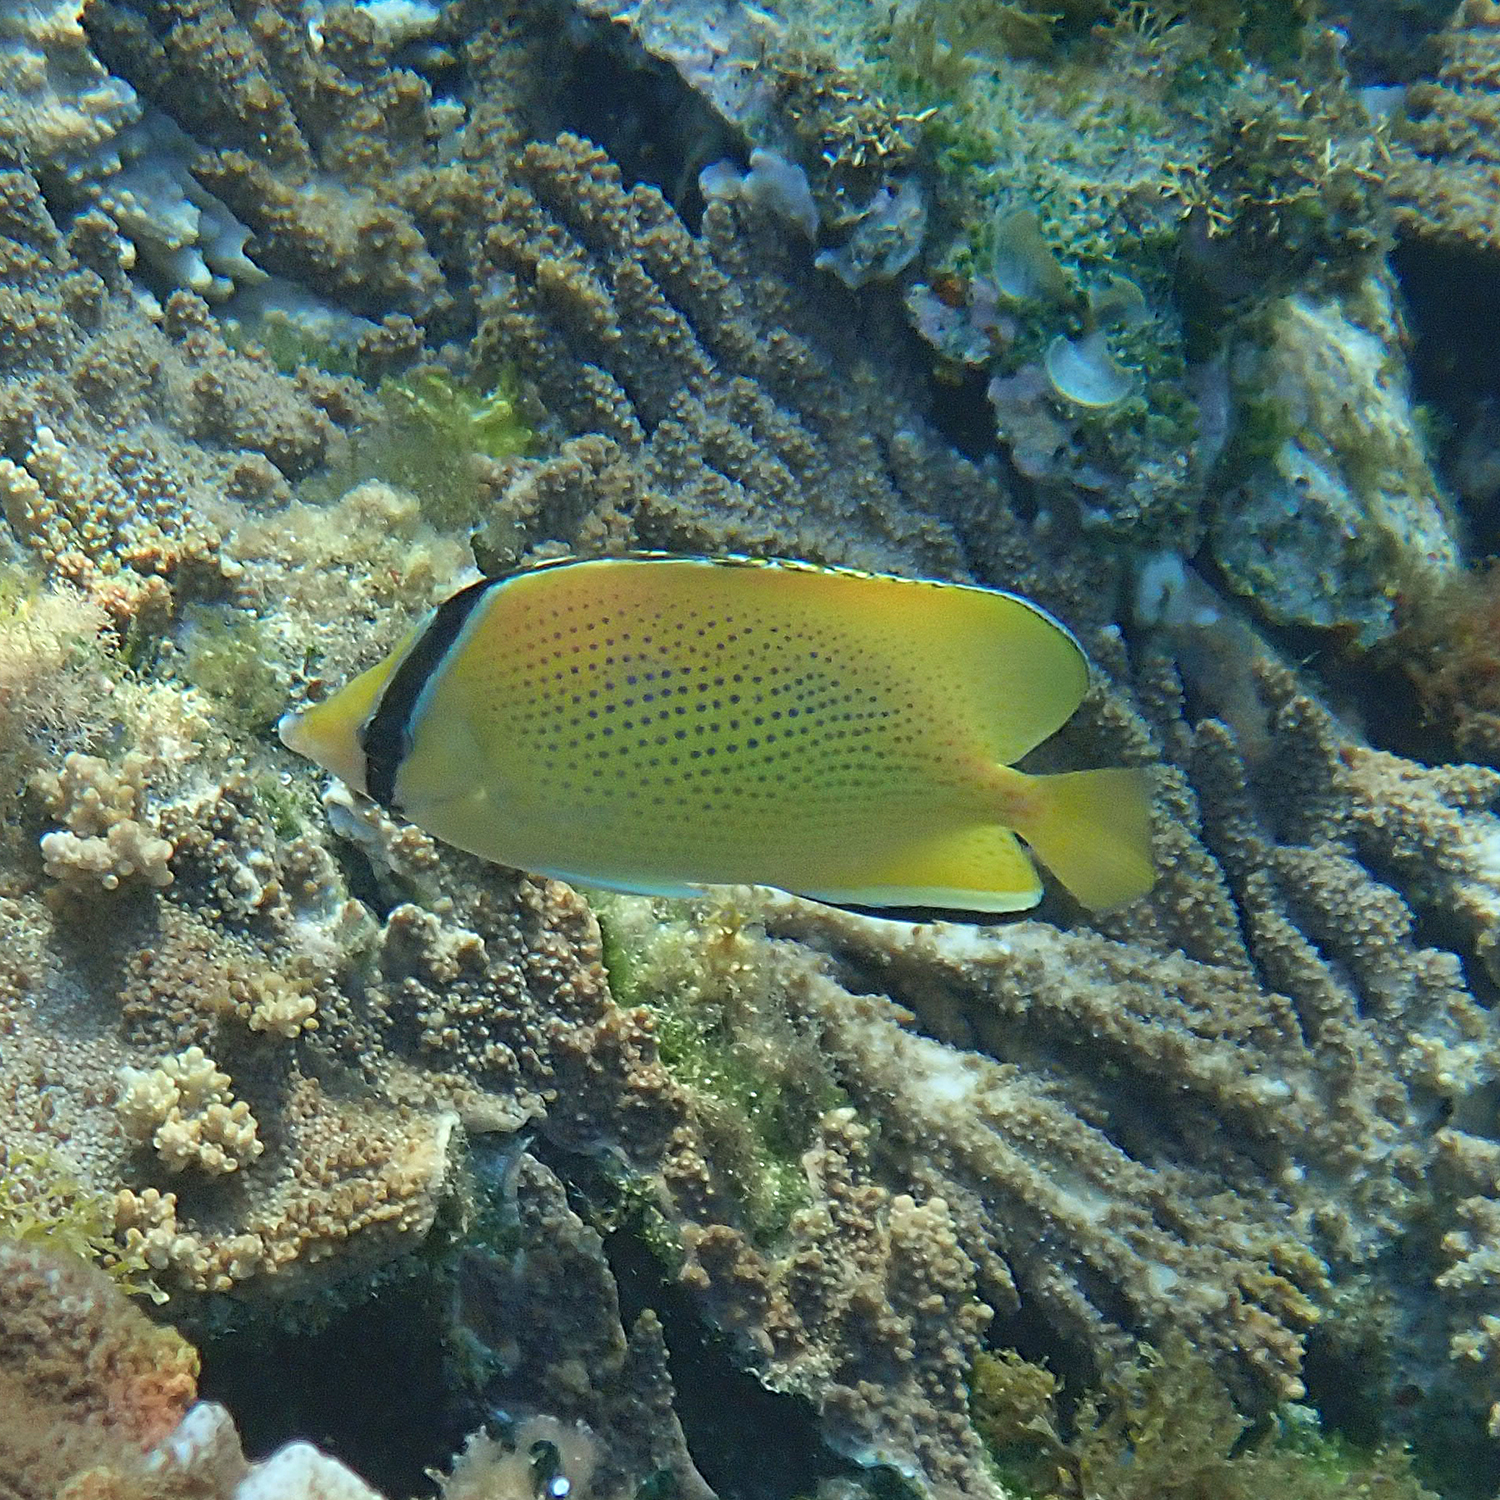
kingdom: Animalia
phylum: Chordata
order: Perciformes
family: Chaetodontidae
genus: Chaetodon
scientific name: Chaetodon citrinellus
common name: Speckled butterflyfish
